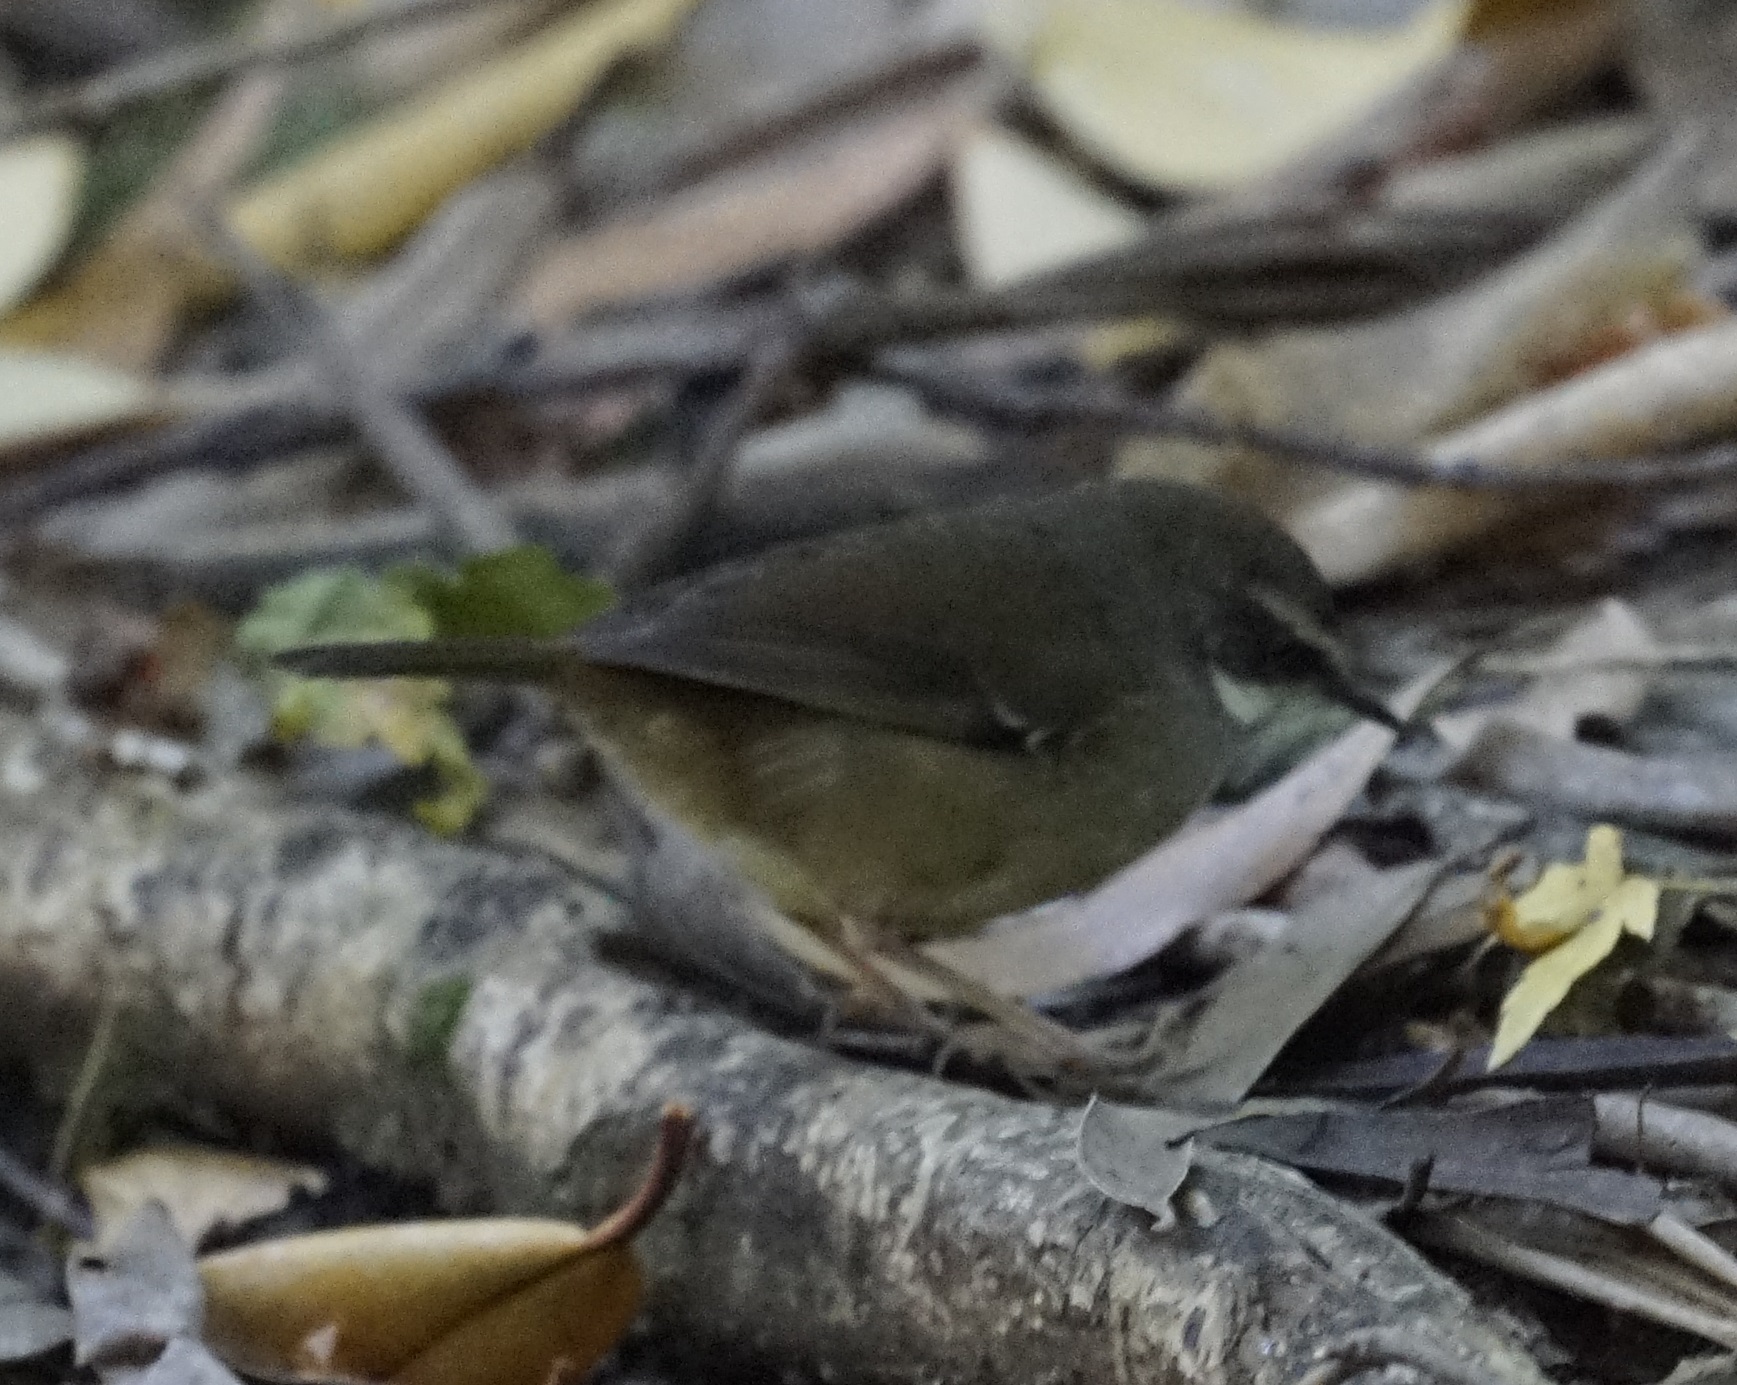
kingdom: Animalia
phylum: Chordata
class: Aves
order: Passeriformes
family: Acanthizidae
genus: Sericornis
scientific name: Sericornis frontalis
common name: White-browed scrubwren
